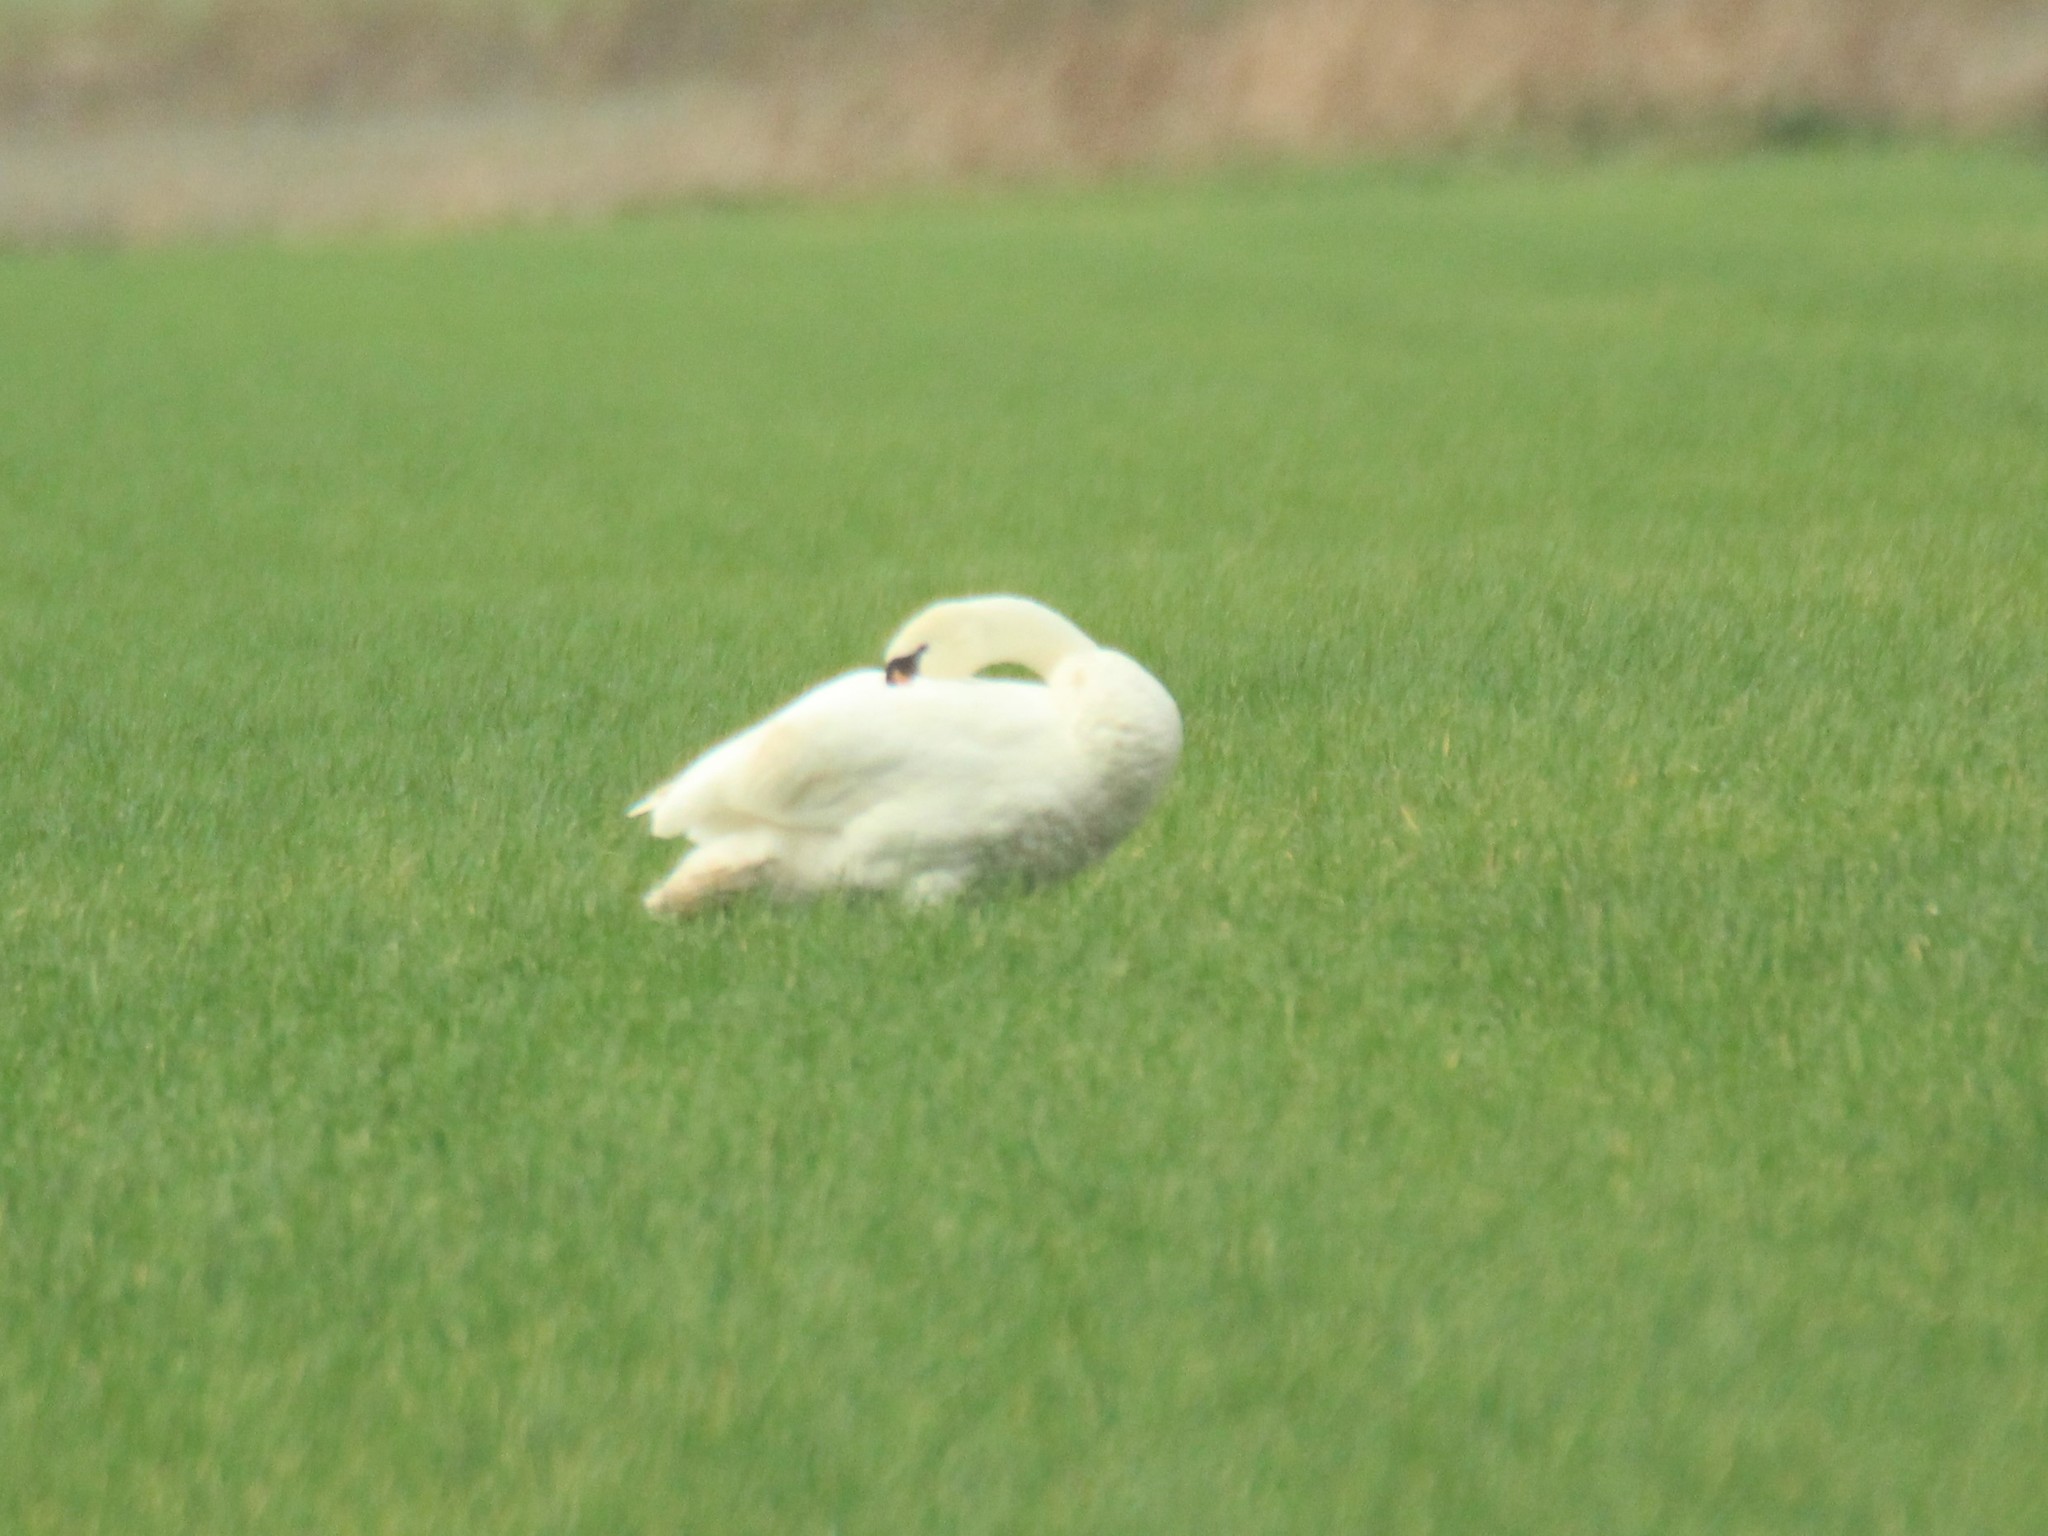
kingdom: Animalia
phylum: Chordata
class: Aves
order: Anseriformes
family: Anatidae
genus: Cygnus
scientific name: Cygnus olor
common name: Mute swan
